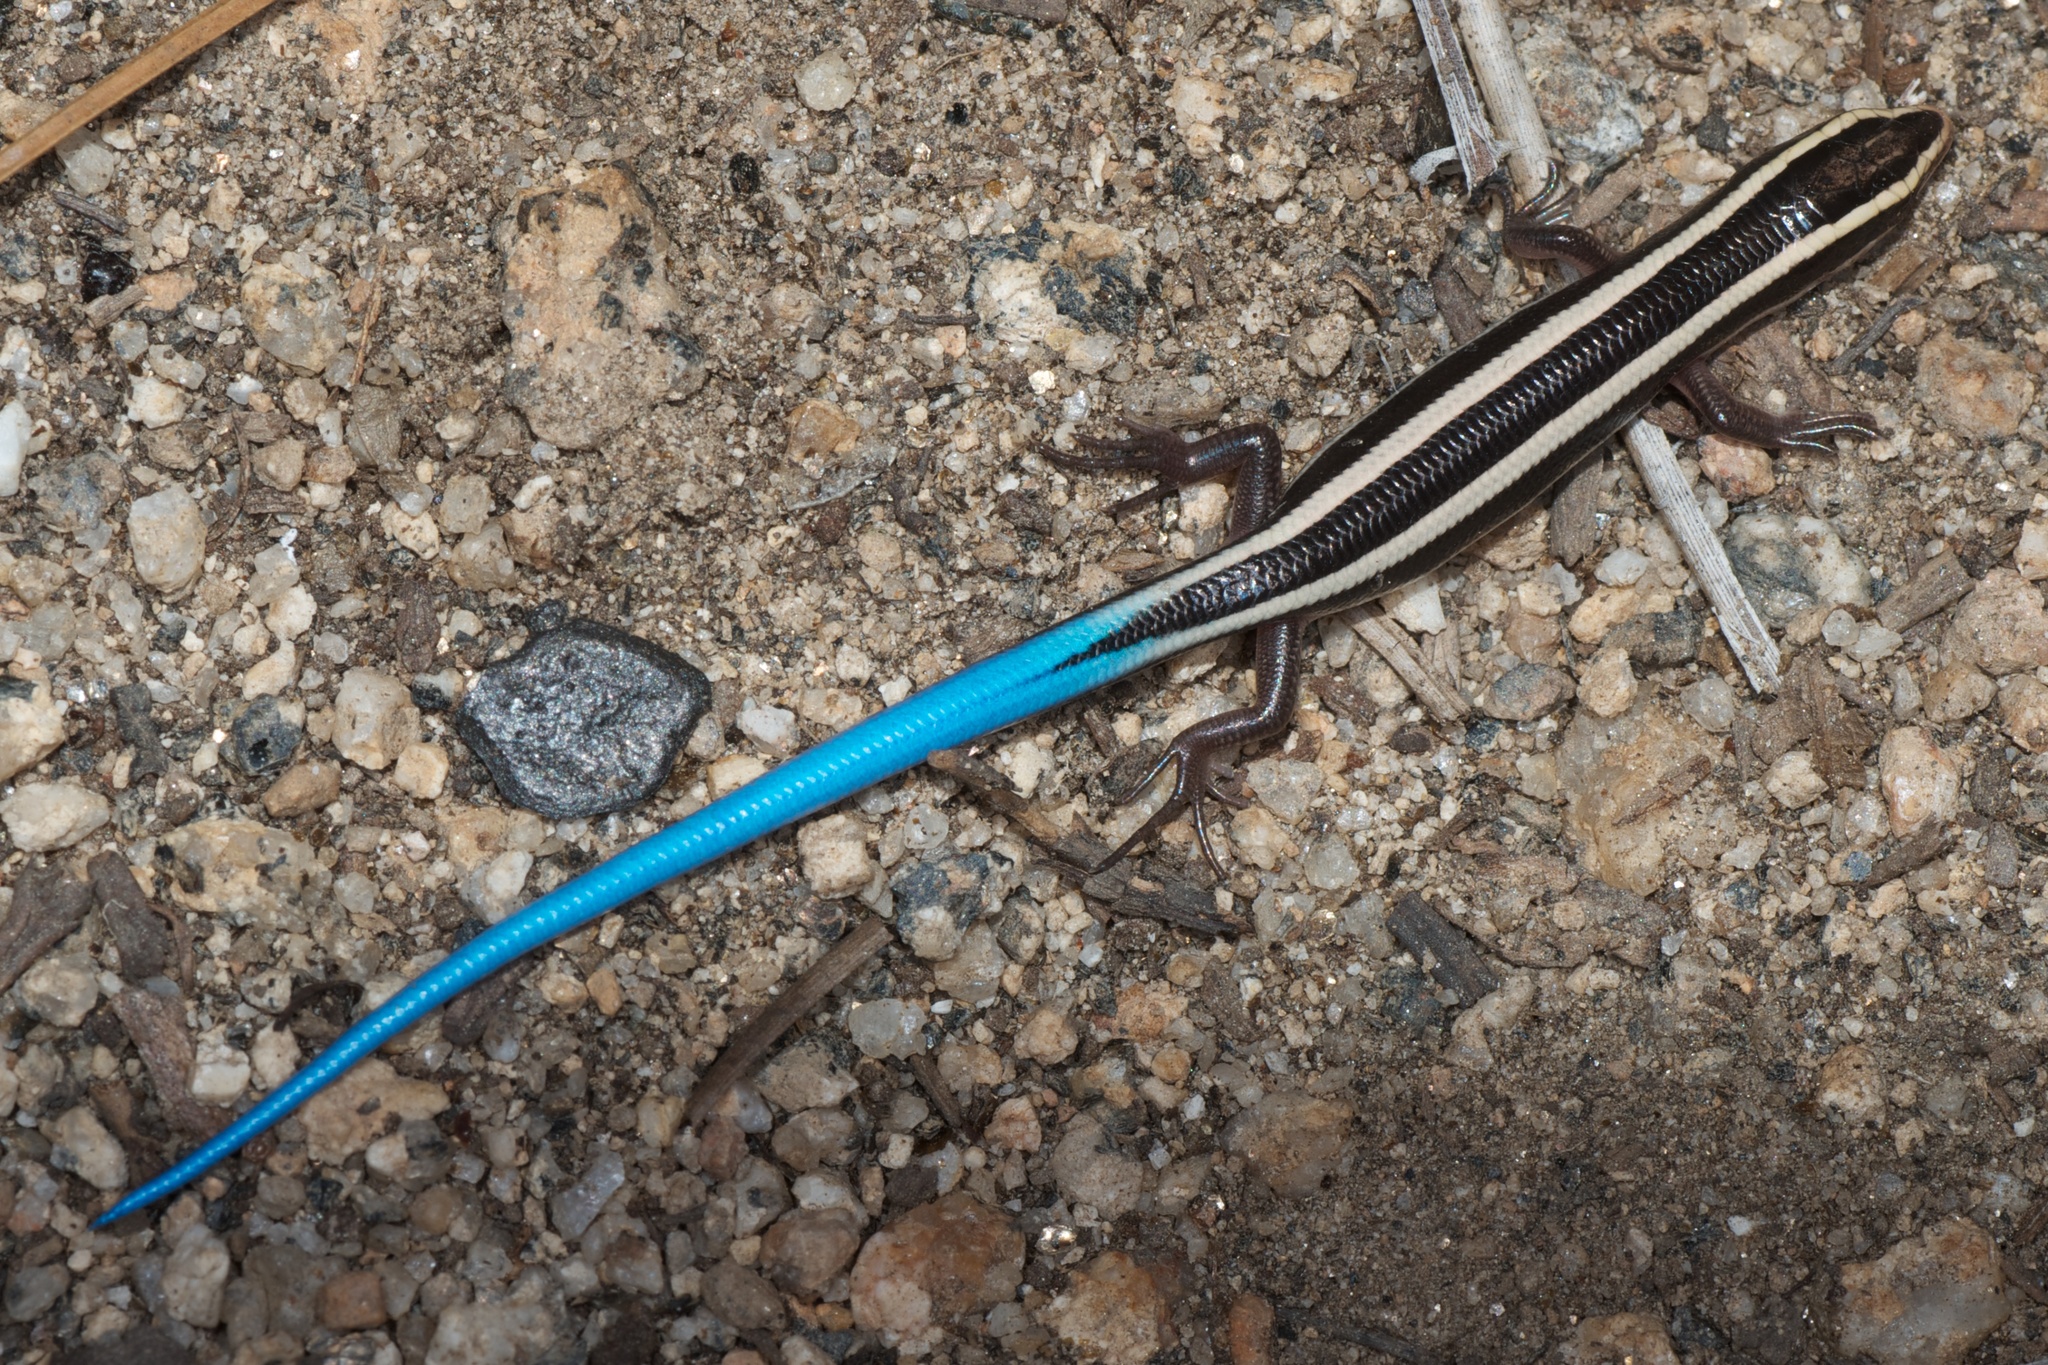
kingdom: Animalia
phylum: Chordata
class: Squamata
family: Scincidae
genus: Plestiodon
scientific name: Plestiodon skiltonianus
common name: Coronado island skink [interparietalis]
